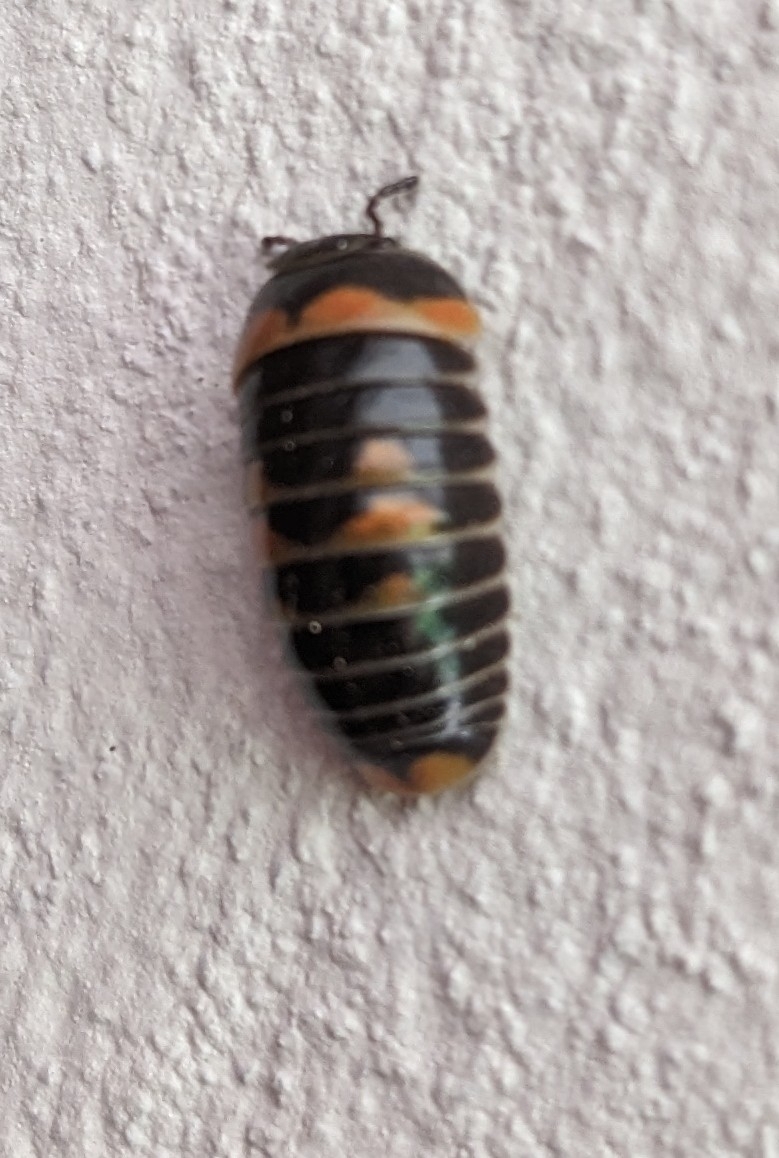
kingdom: Animalia
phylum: Arthropoda
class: Diplopoda
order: Glomerida
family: Glomeridae
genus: Glomeris
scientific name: Glomeris pulchra
